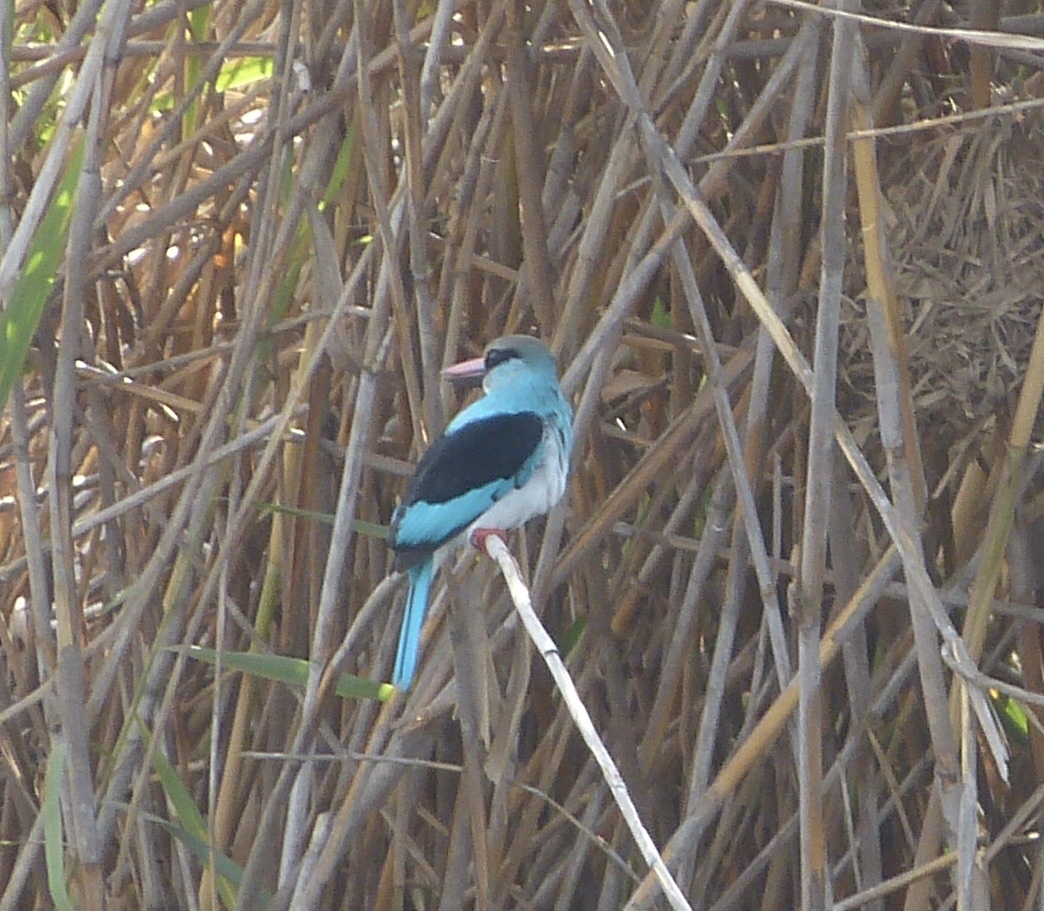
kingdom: Animalia
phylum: Chordata
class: Aves
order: Coraciiformes
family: Alcedinidae
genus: Halcyon
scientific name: Halcyon malimbica
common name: Blue-breasted kingfisher
